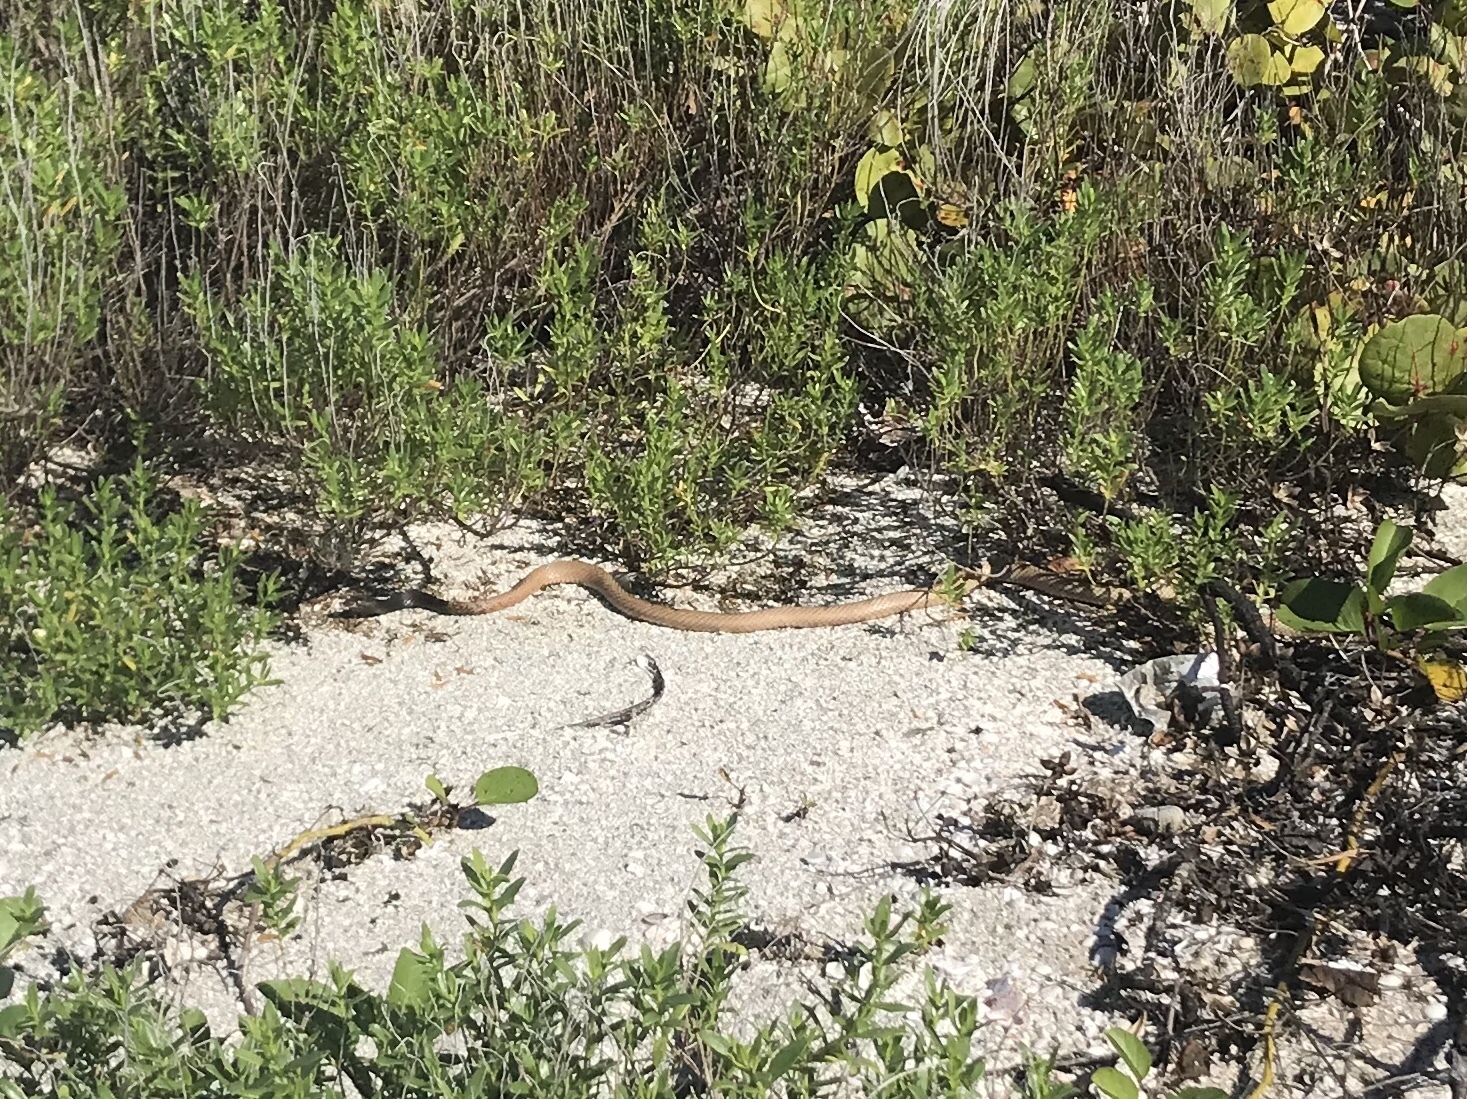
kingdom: Animalia
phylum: Chordata
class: Squamata
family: Colubridae
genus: Masticophis
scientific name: Masticophis flagellum
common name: Coachwhip
